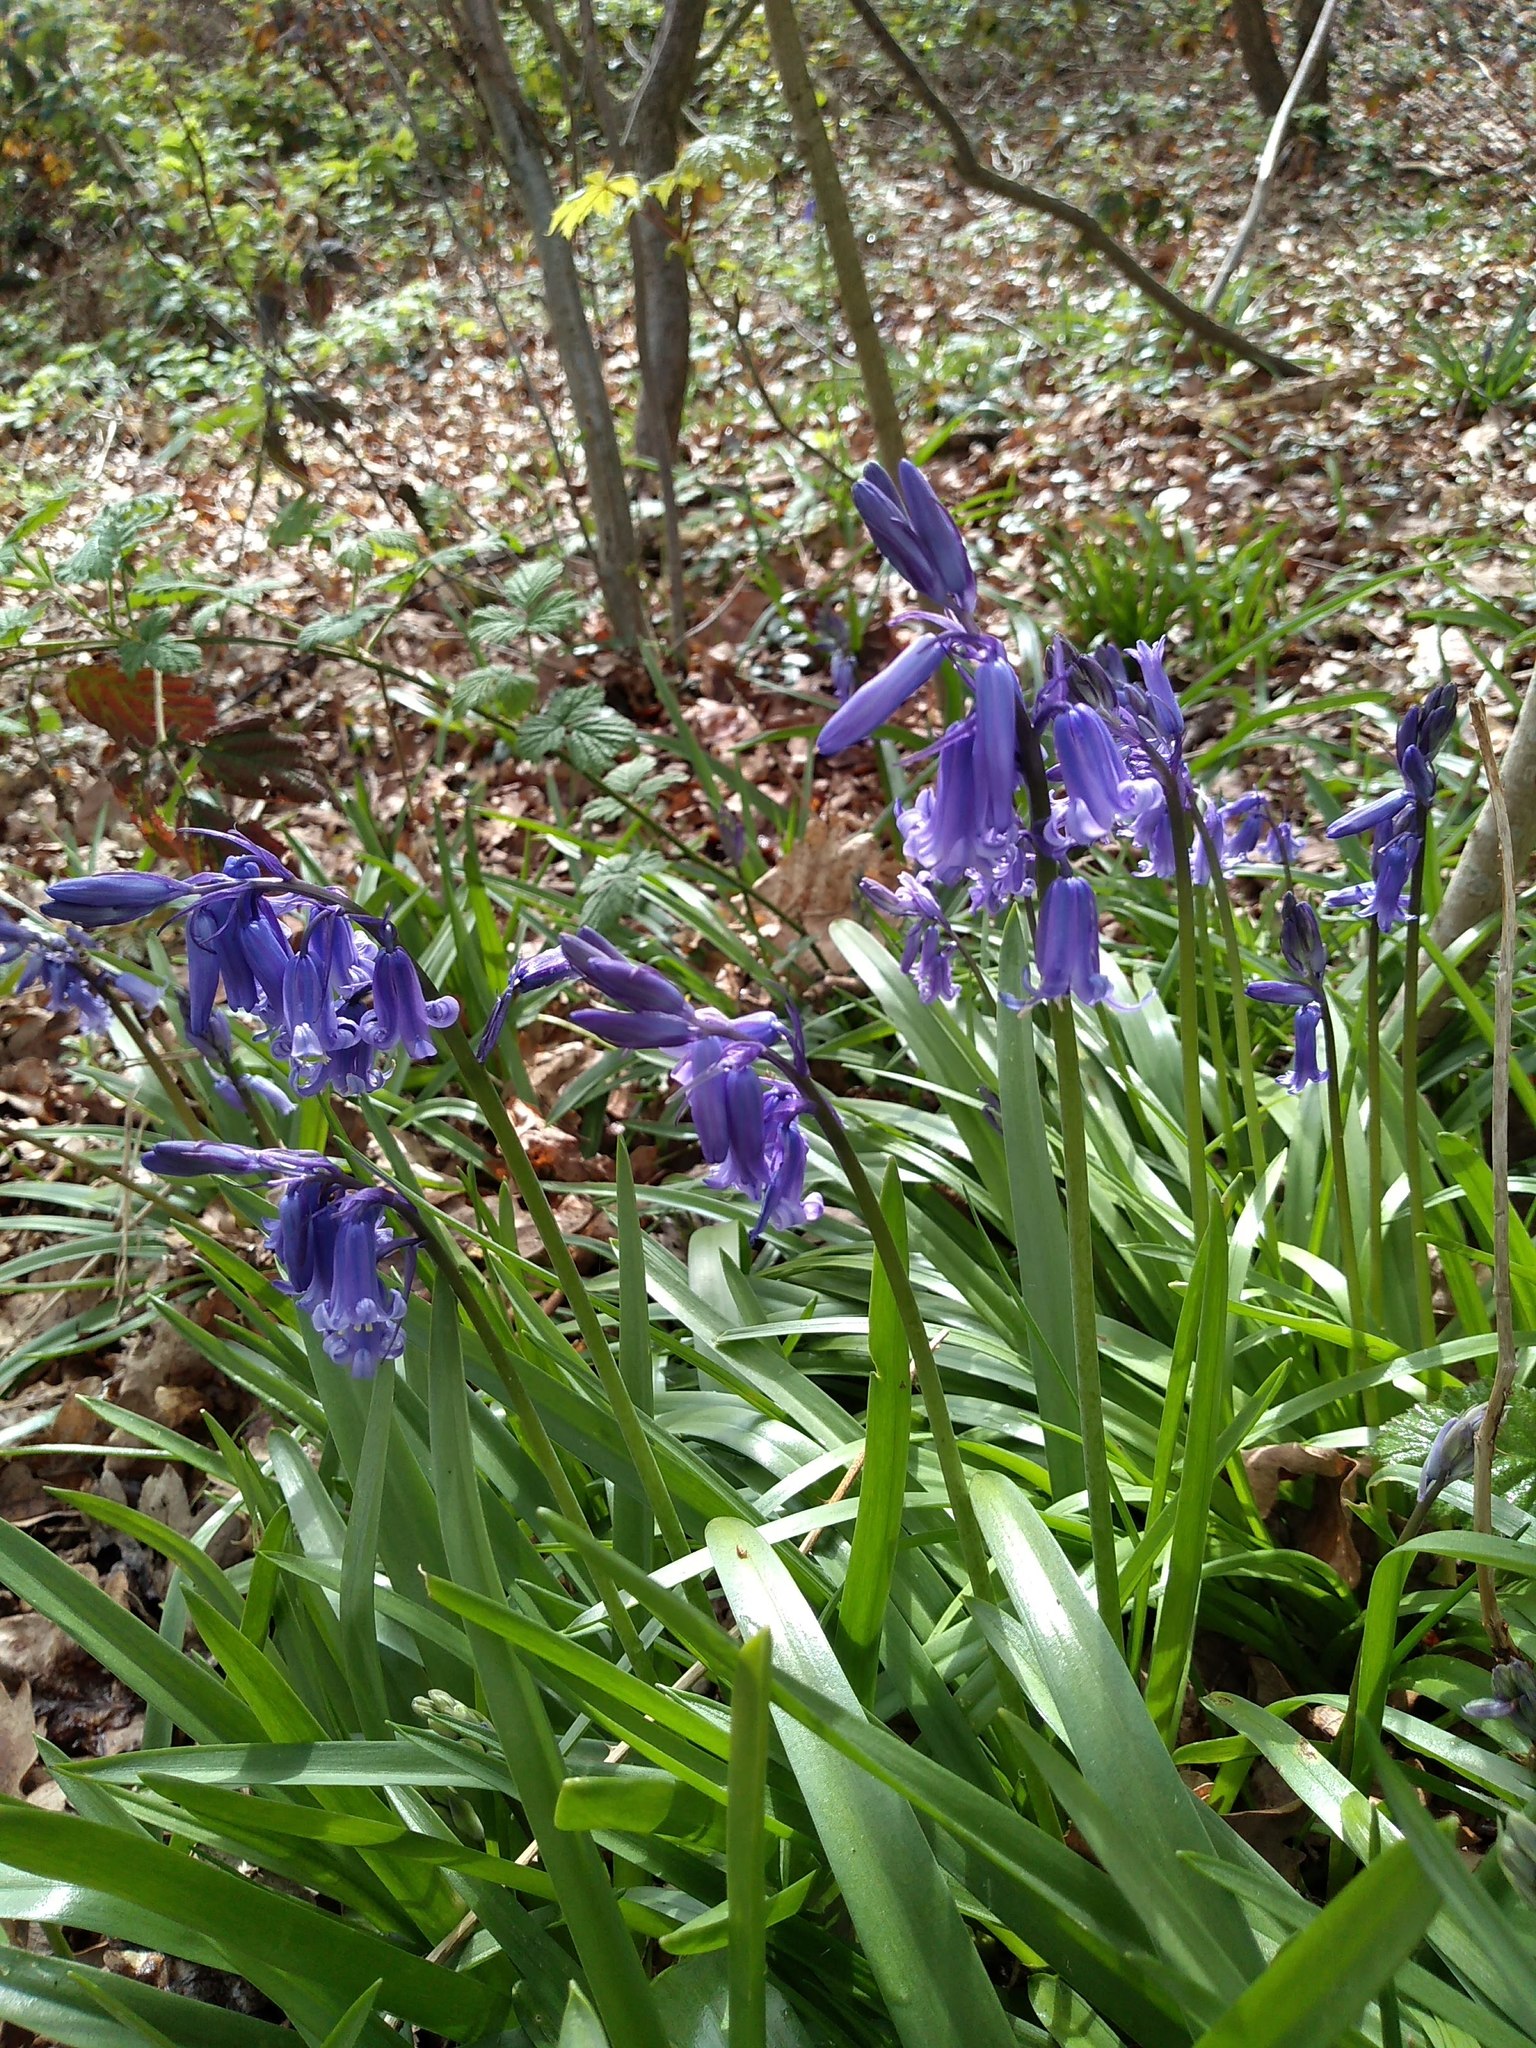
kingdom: Plantae
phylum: Tracheophyta
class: Liliopsida
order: Asparagales
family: Asparagaceae
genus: Hyacinthoides
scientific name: Hyacinthoides non-scripta
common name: Bluebell
